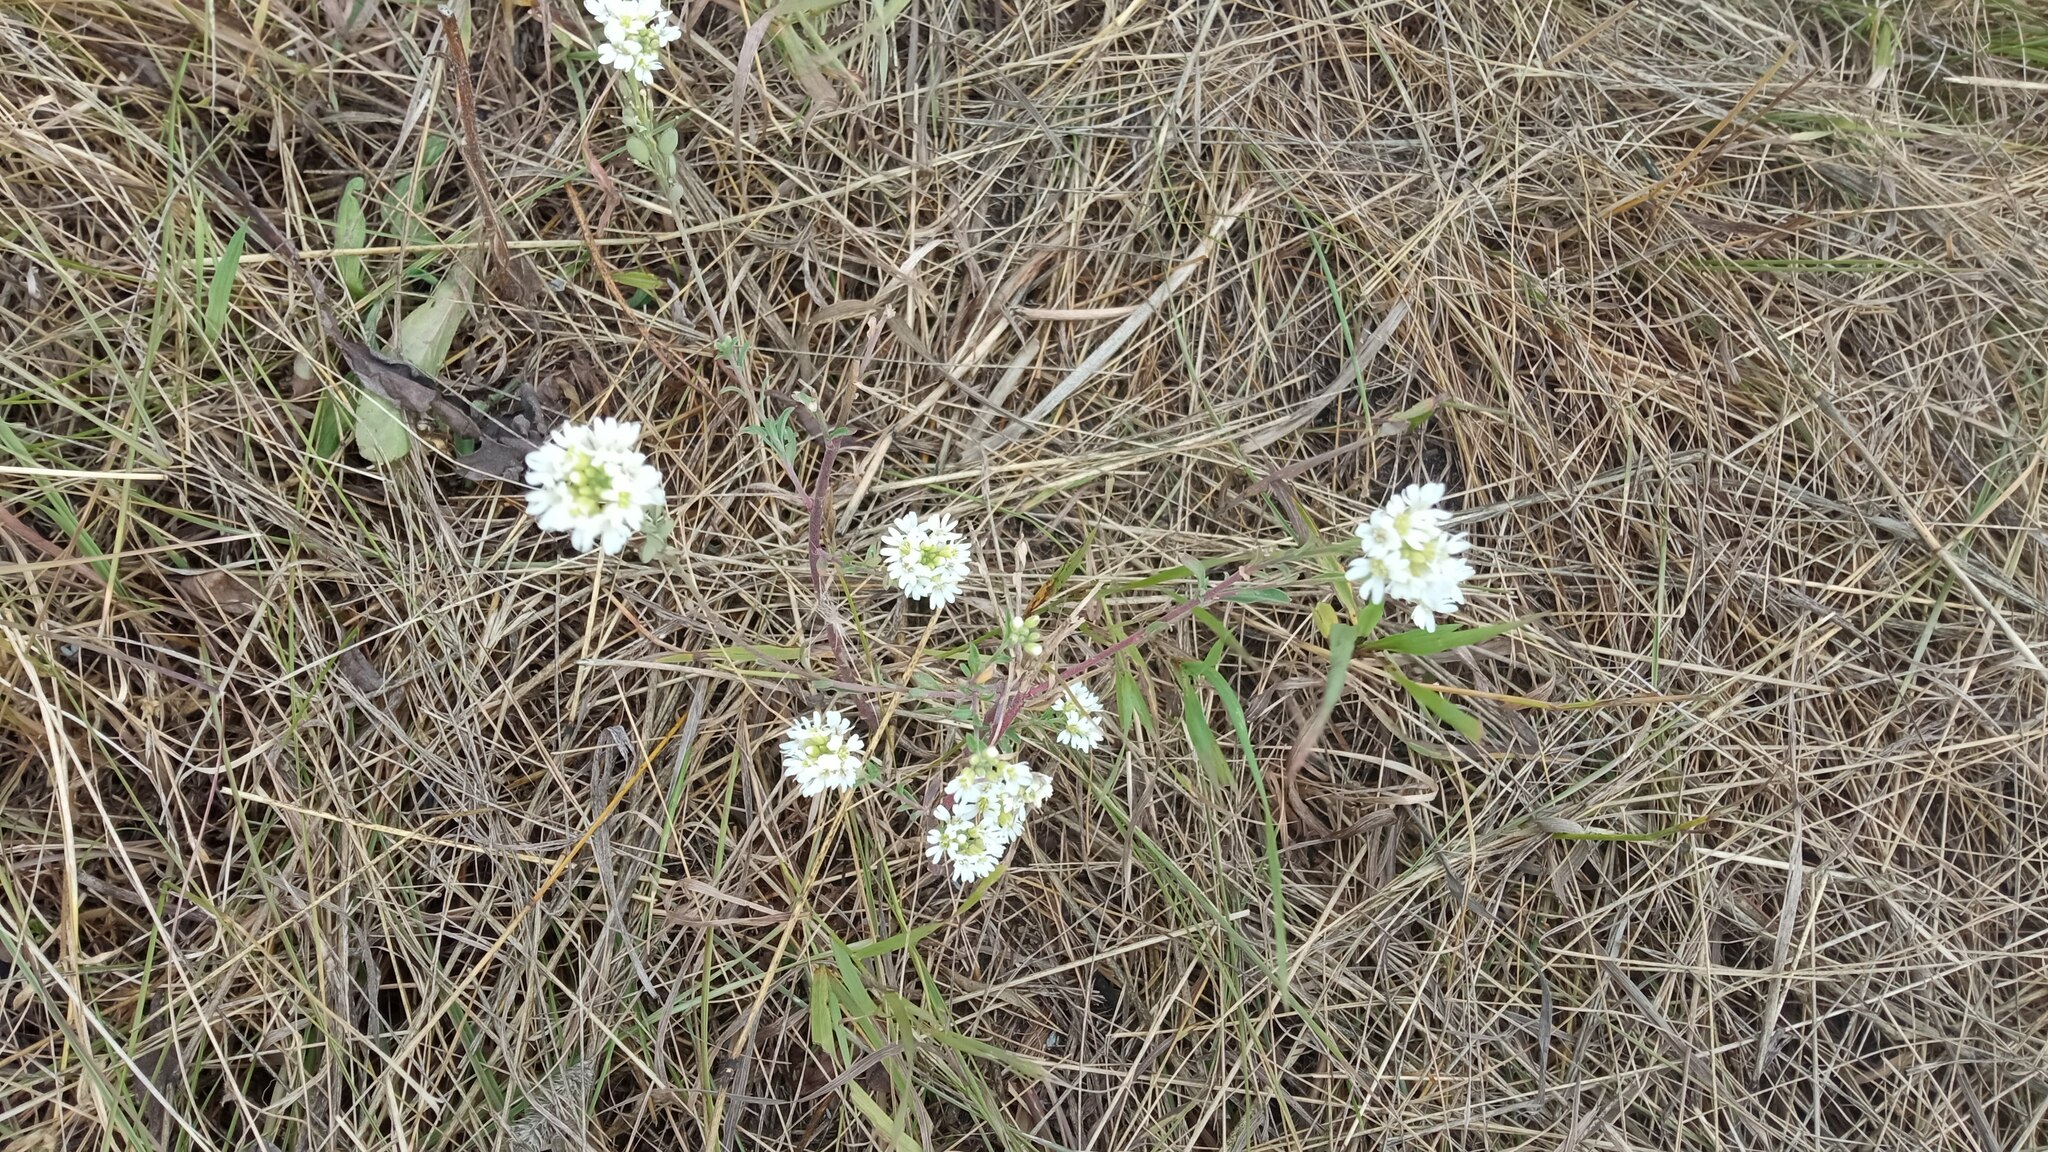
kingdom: Plantae
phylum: Tracheophyta
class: Magnoliopsida
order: Brassicales
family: Brassicaceae
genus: Berteroa
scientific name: Berteroa incana
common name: Hoary alison
